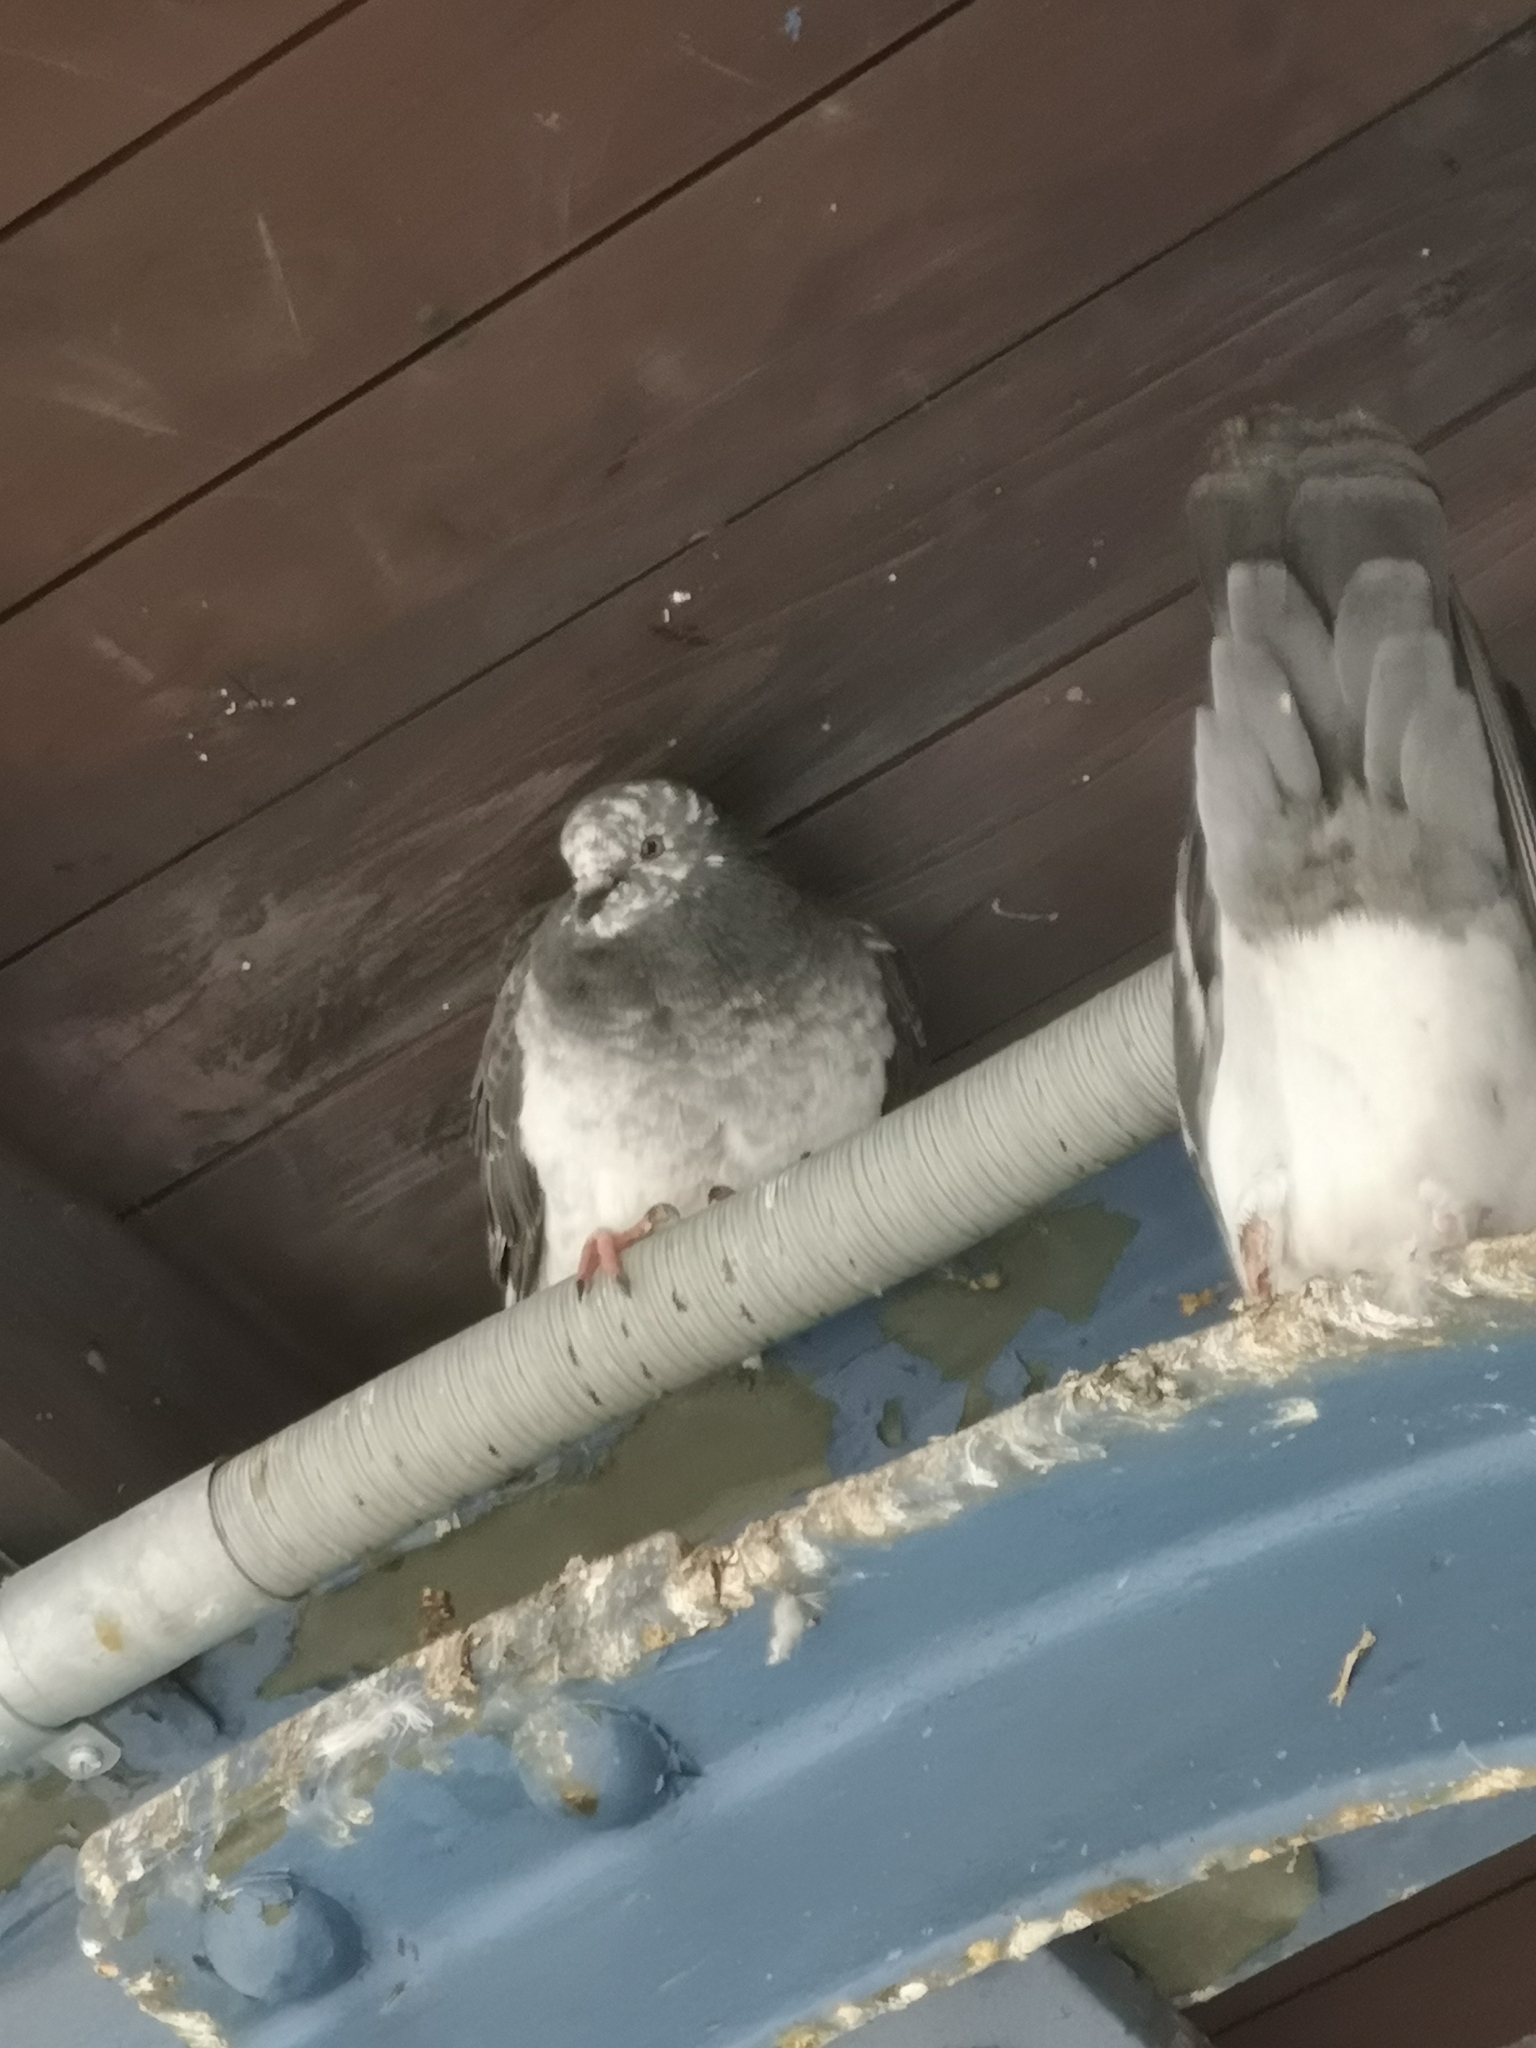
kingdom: Animalia
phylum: Chordata
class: Aves
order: Columbiformes
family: Columbidae
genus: Columba
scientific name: Columba livia
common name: Rock pigeon
